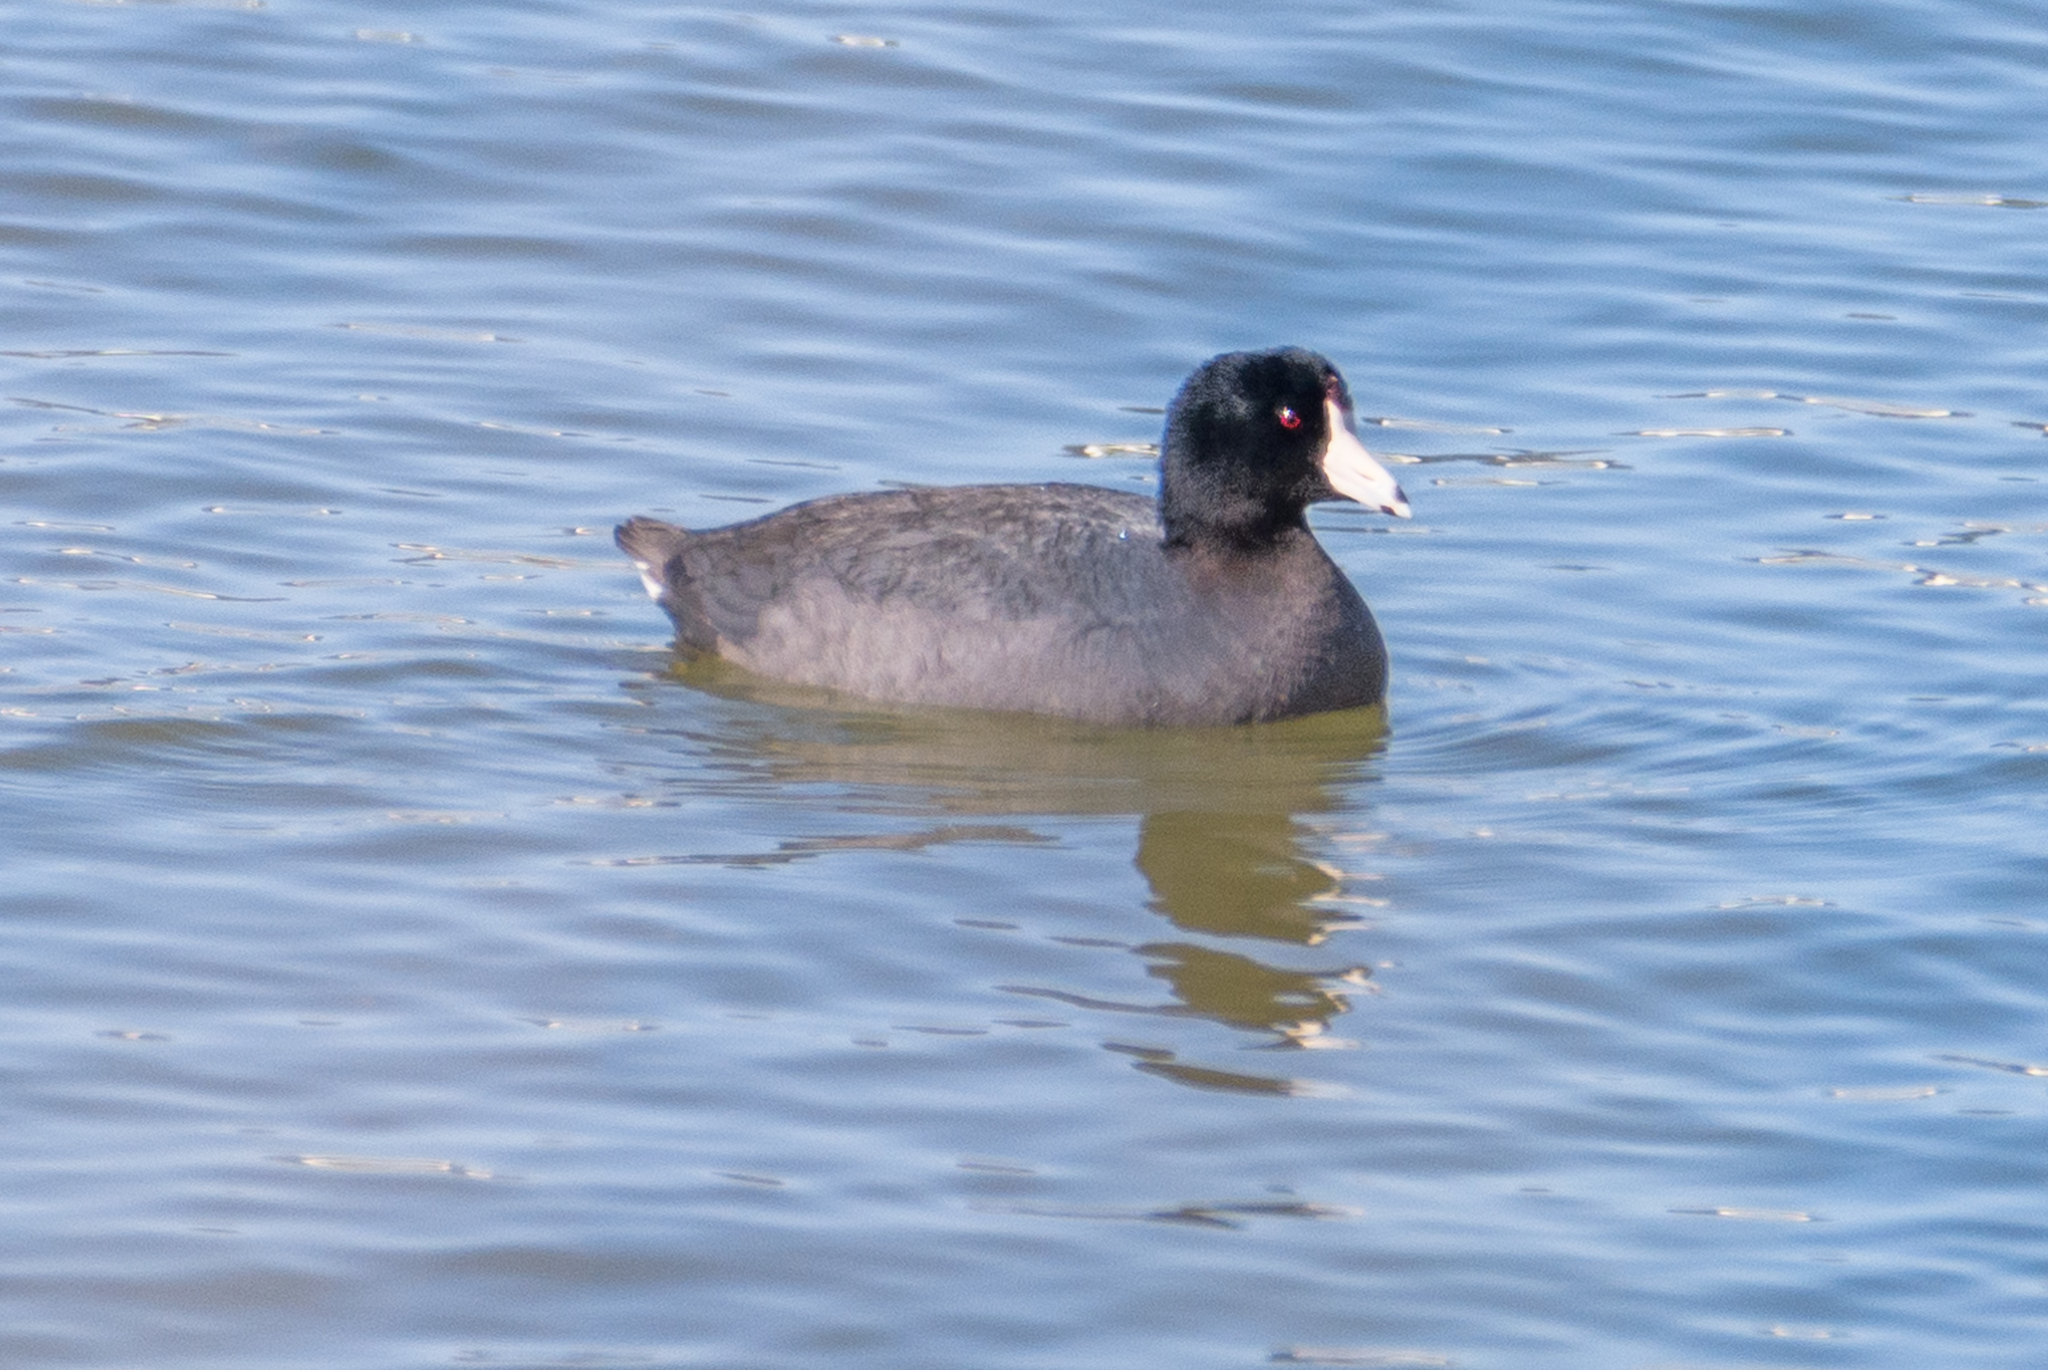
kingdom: Animalia
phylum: Chordata
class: Aves
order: Gruiformes
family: Rallidae
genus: Fulica
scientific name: Fulica americana
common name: American coot
